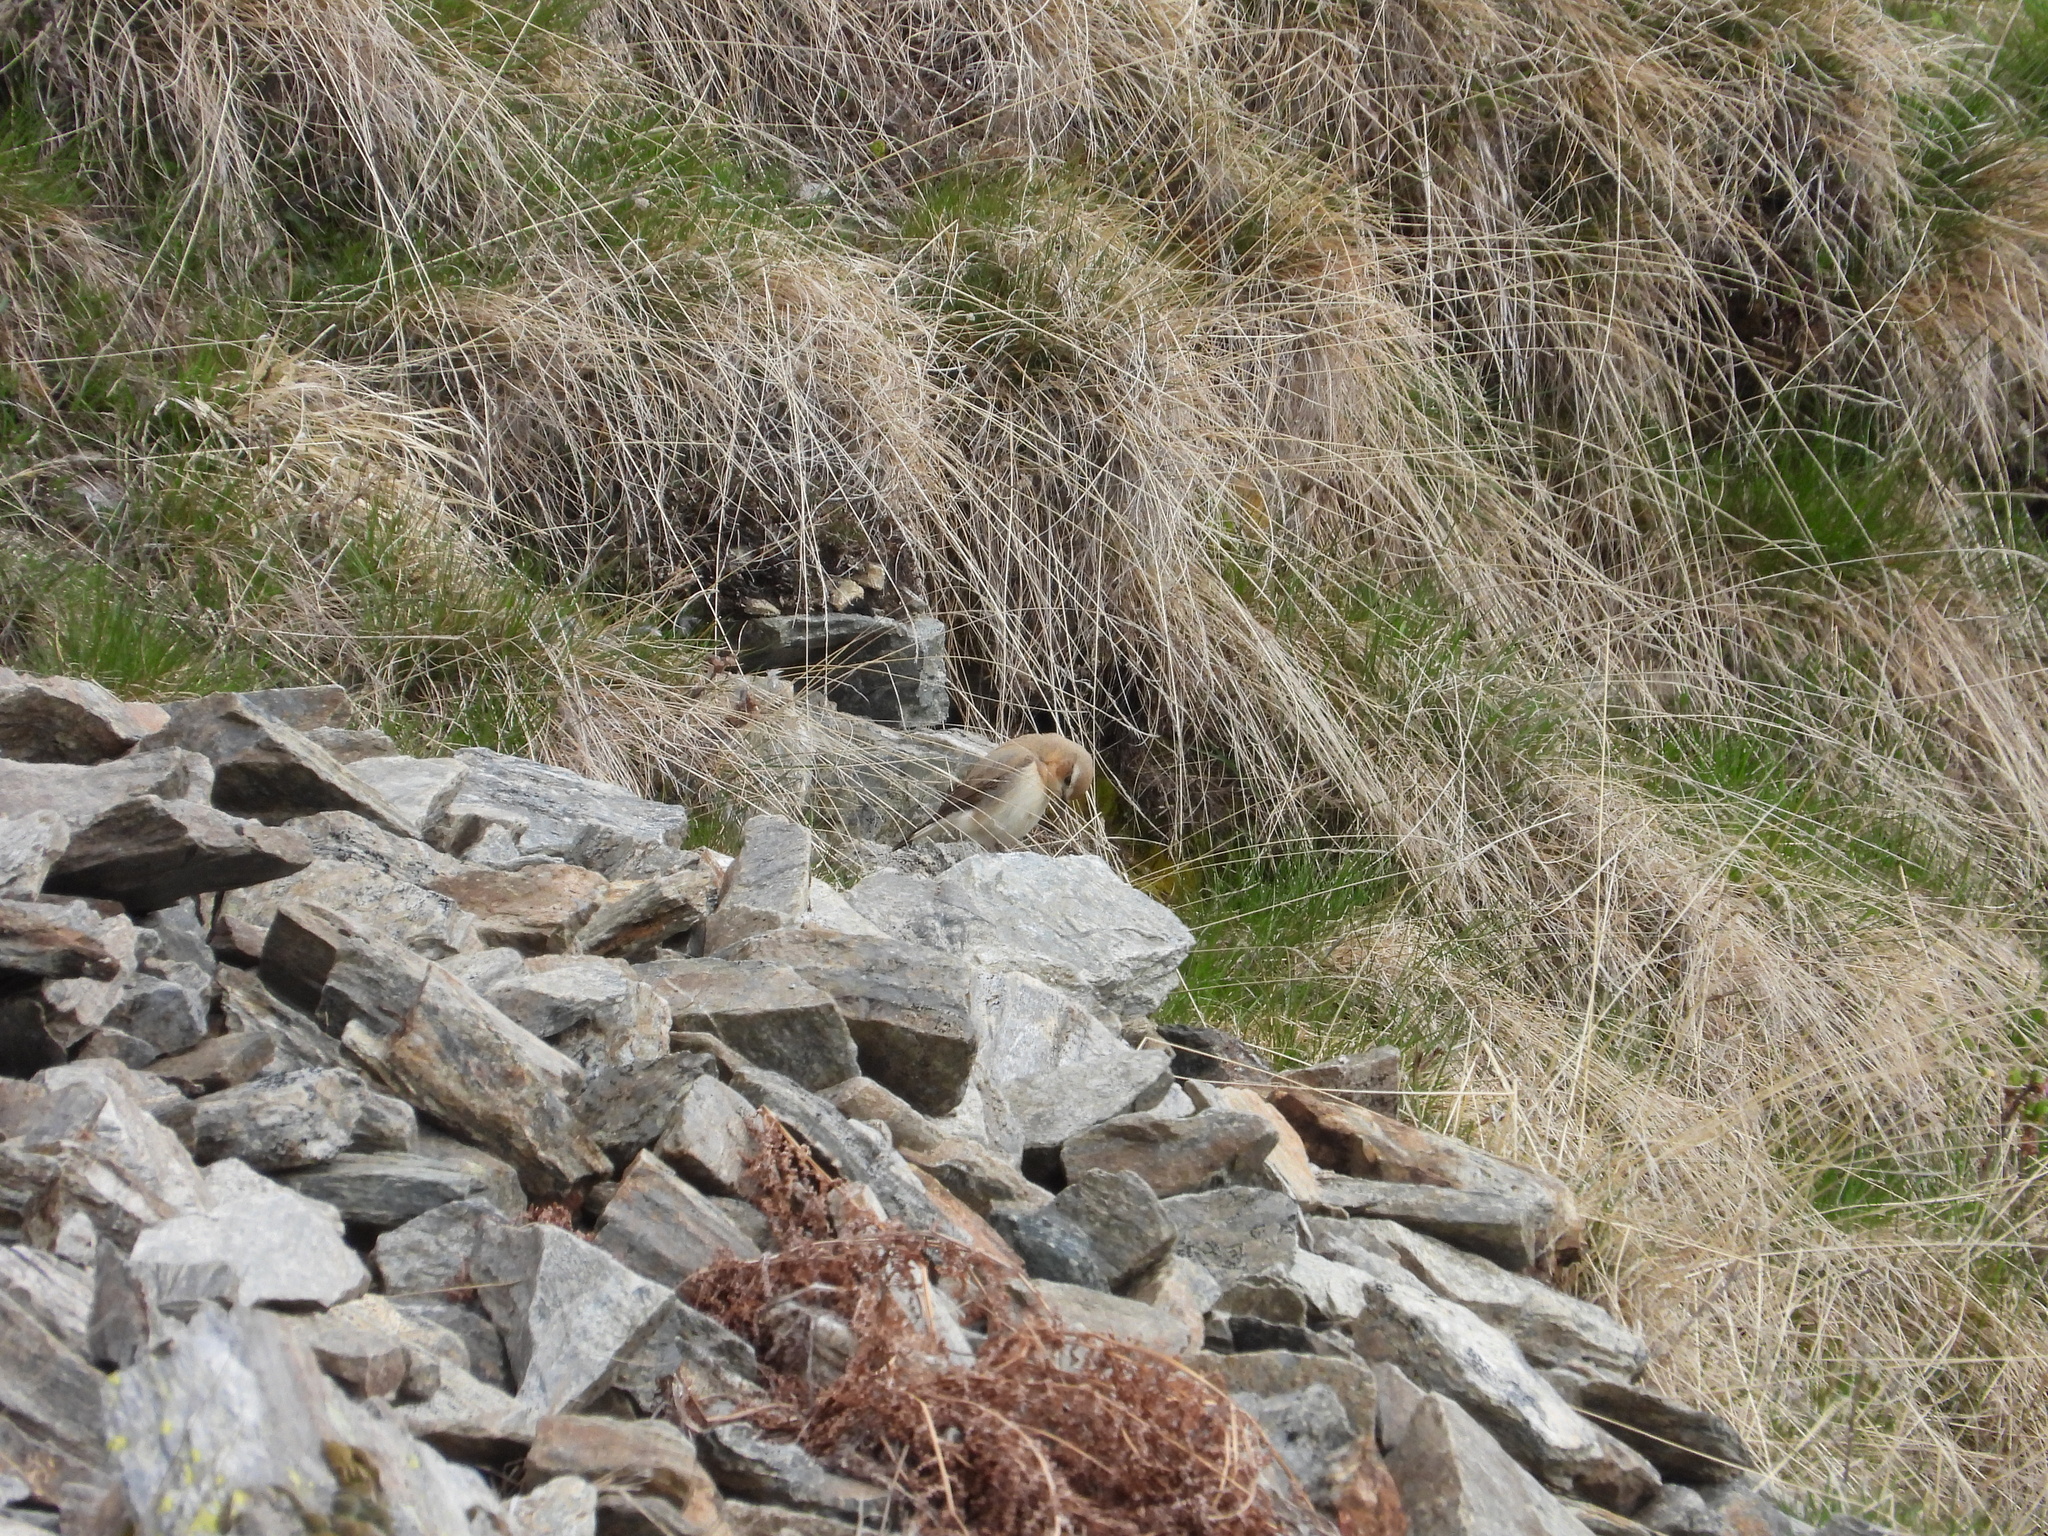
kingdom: Animalia
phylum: Chordata
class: Aves
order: Passeriformes
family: Muscicapidae
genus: Oenanthe
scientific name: Oenanthe oenanthe
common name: Northern wheatear
